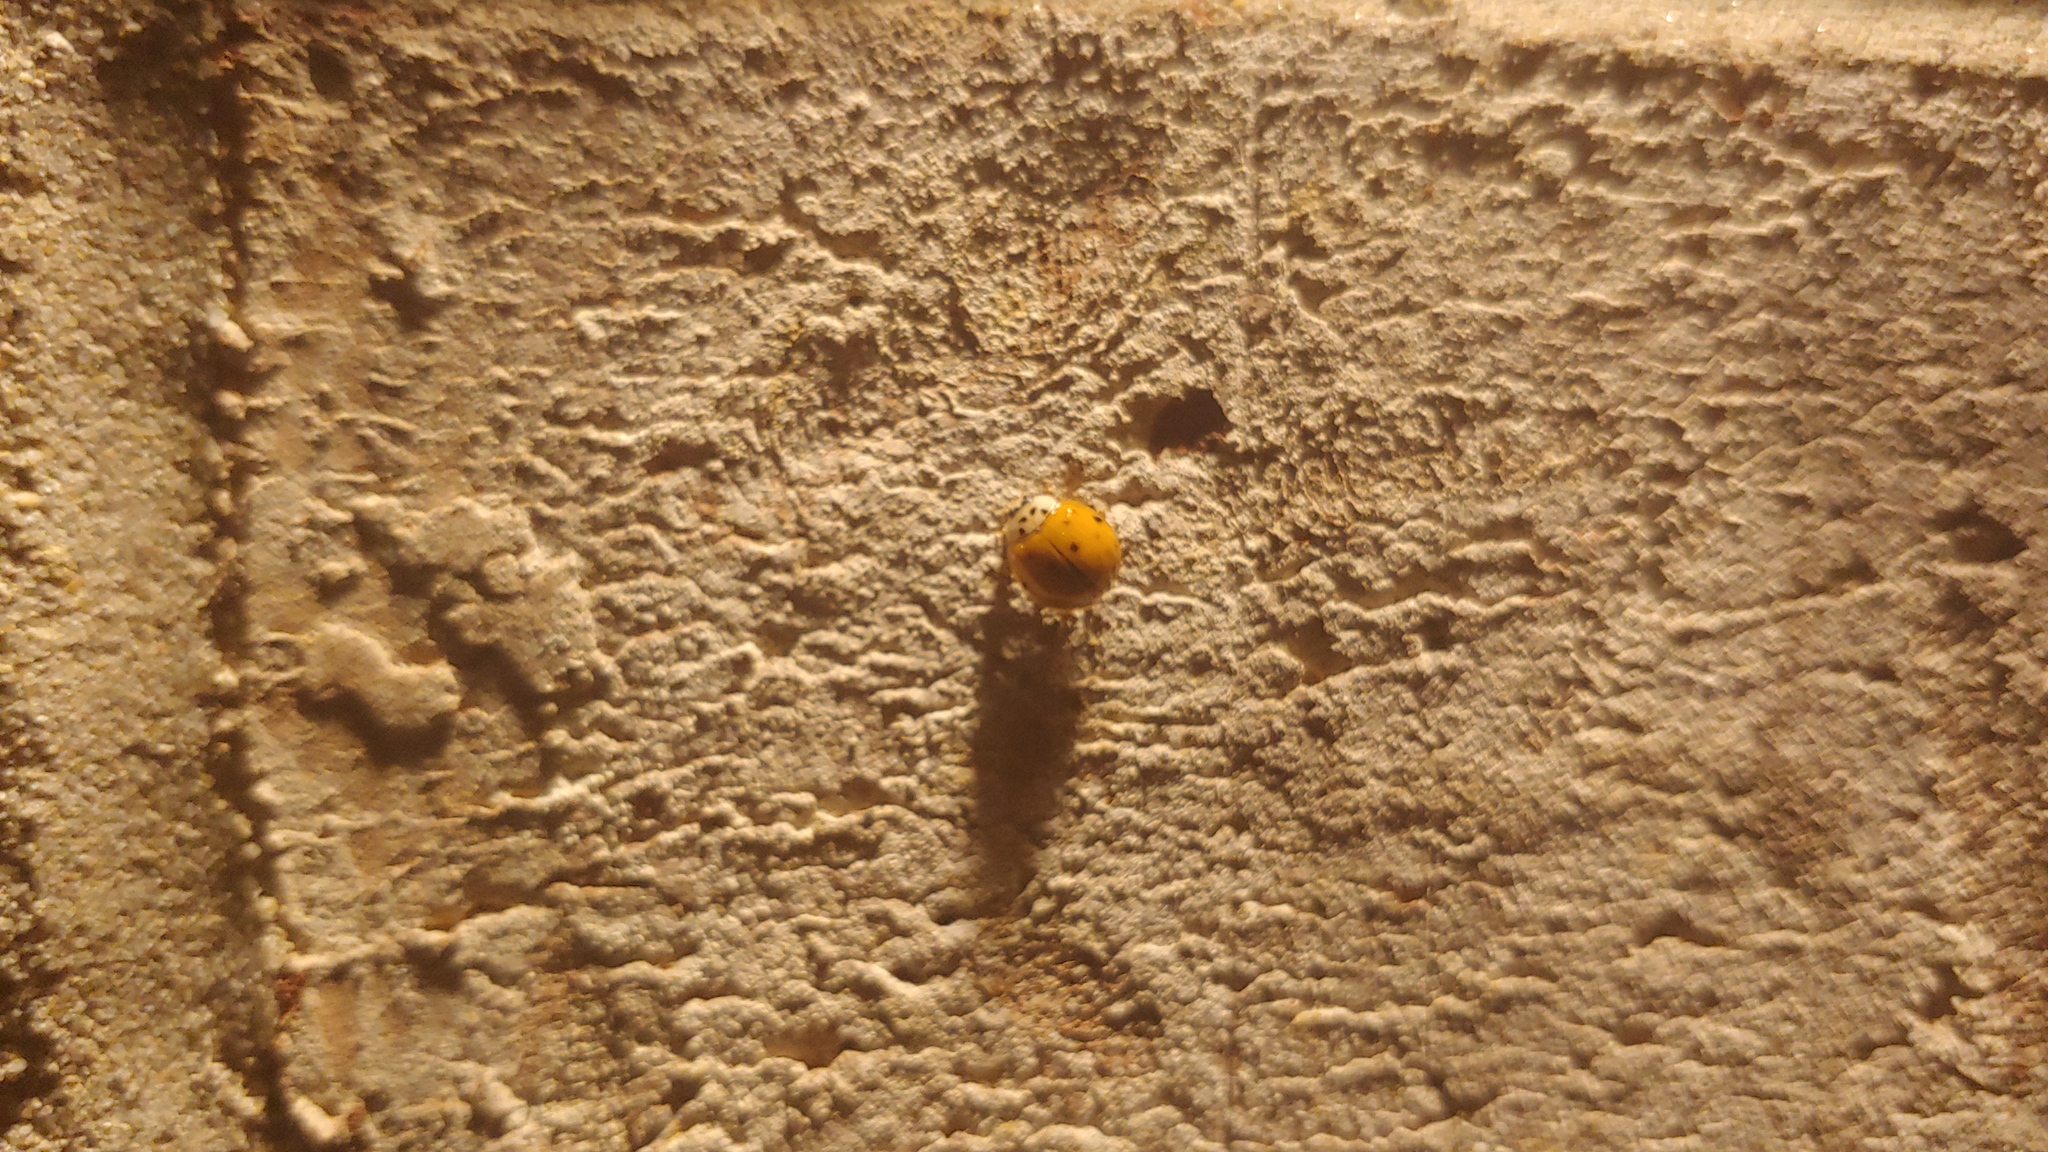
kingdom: Animalia
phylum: Arthropoda
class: Insecta
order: Coleoptera
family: Coccinellidae
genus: Harmonia
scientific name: Harmonia axyridis
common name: Harlequin ladybird
